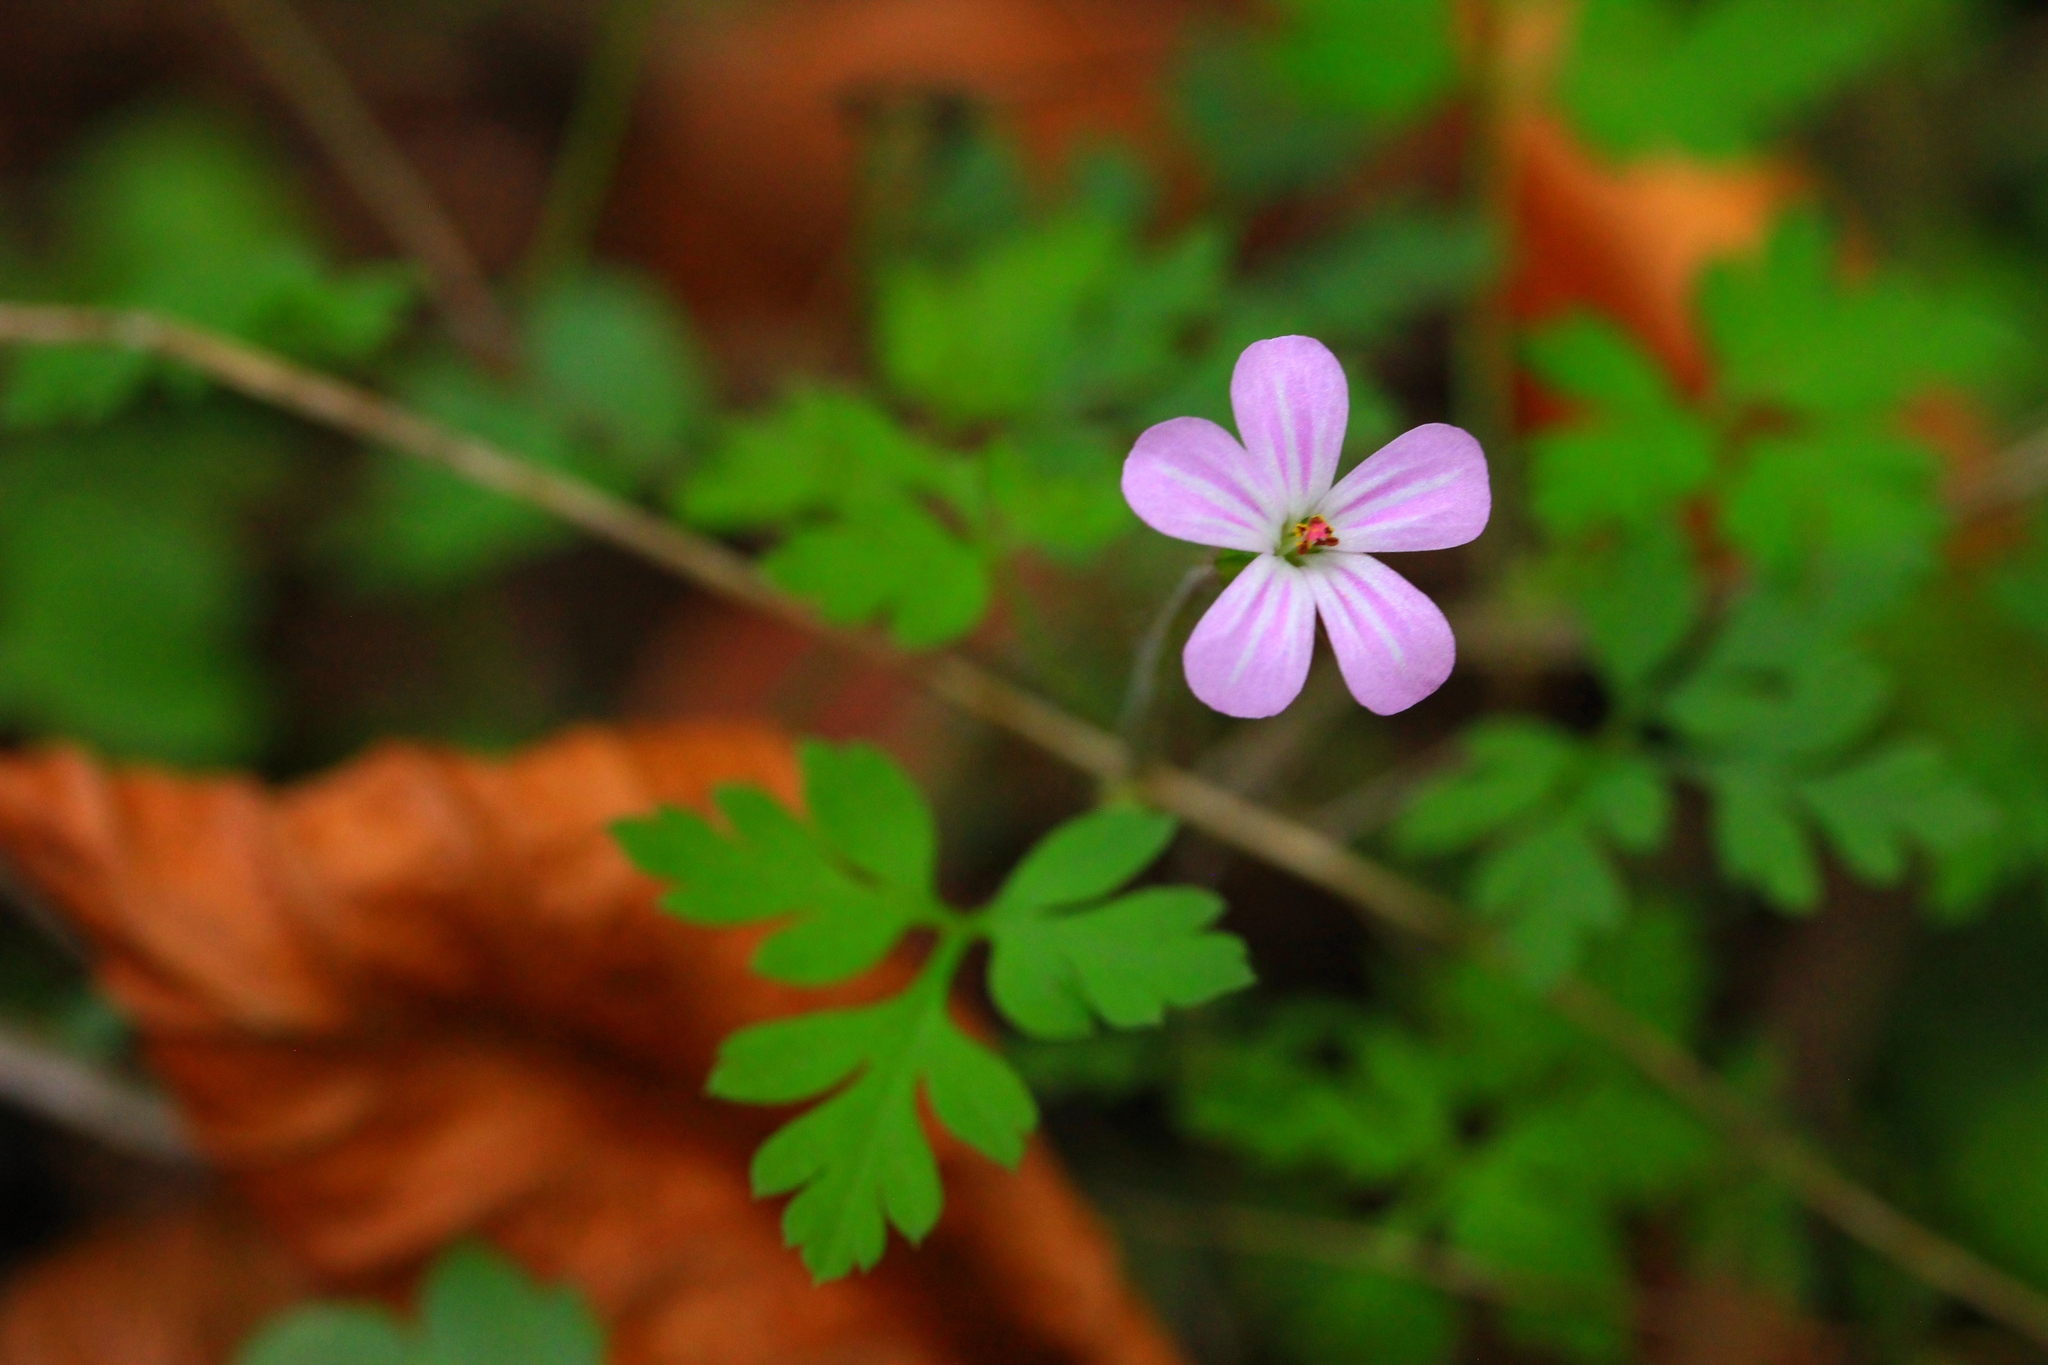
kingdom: Plantae
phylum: Tracheophyta
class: Magnoliopsida
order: Geraniales
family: Geraniaceae
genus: Geranium
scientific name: Geranium robertianum
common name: Herb-robert
